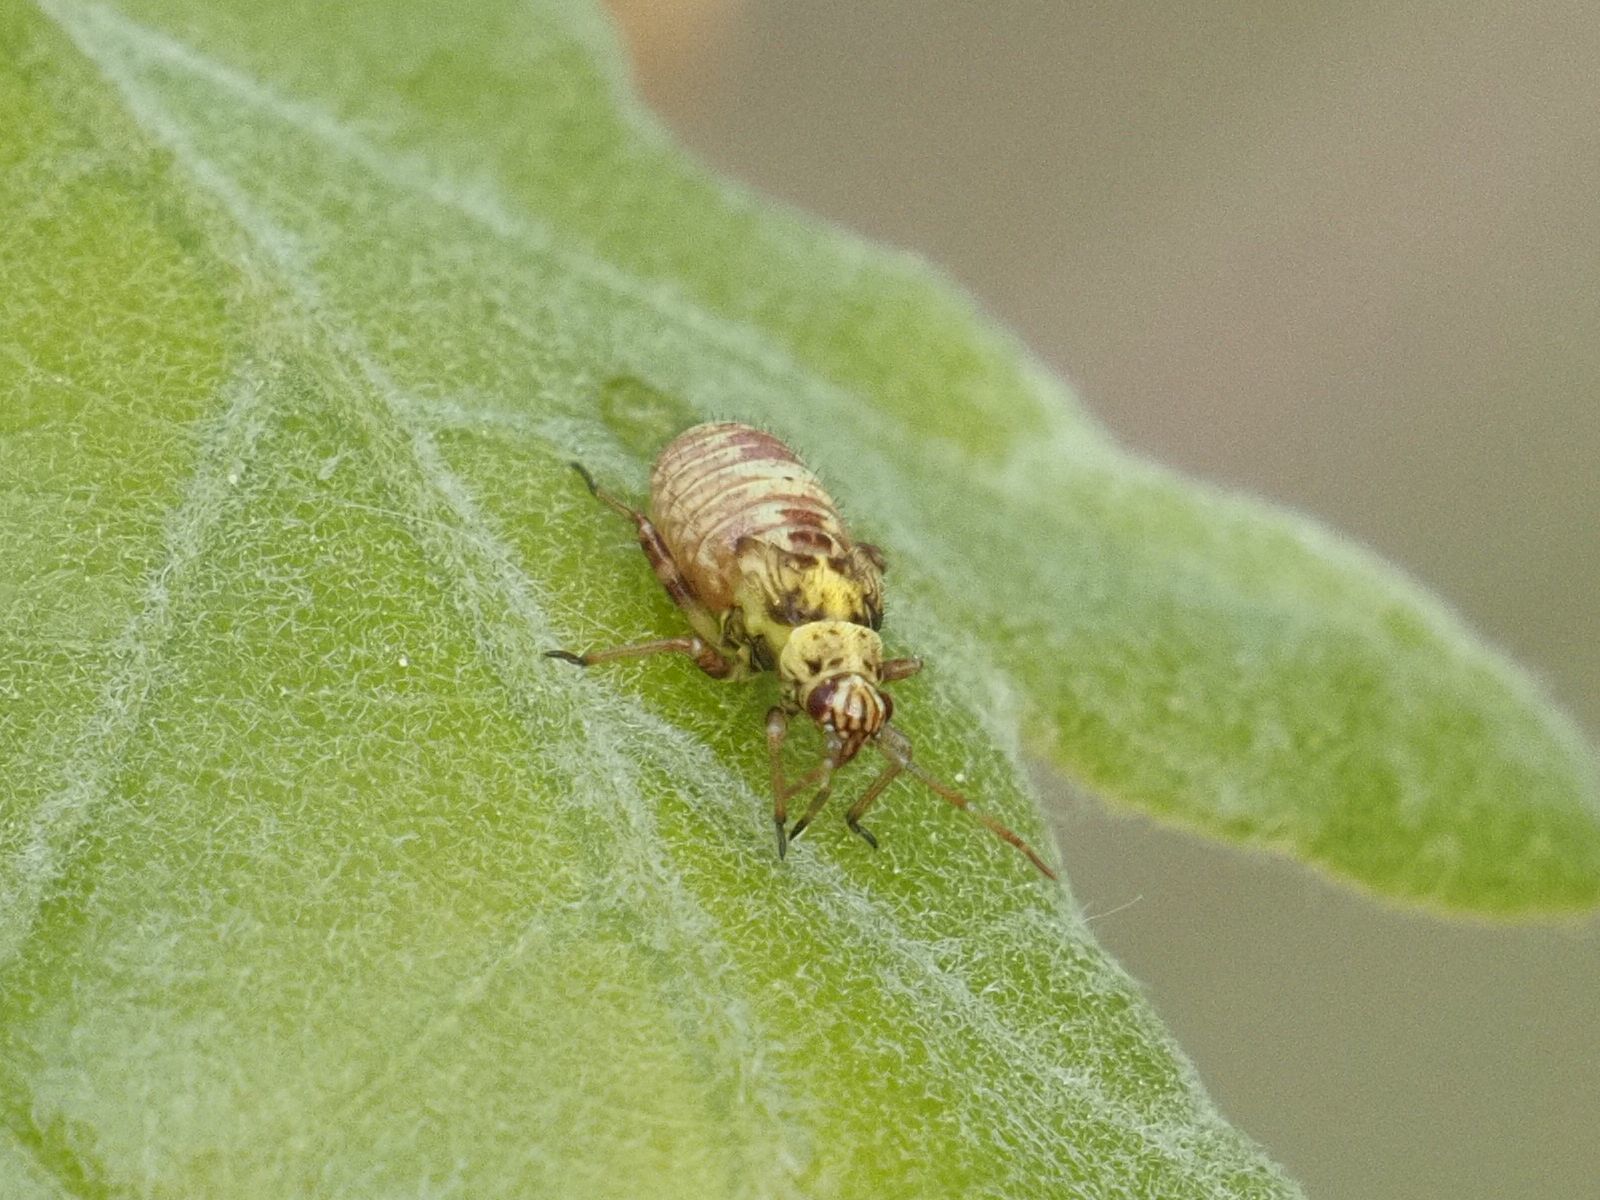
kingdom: Animalia
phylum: Arthropoda
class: Insecta
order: Hemiptera
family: Miridae
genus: Rhabdomiris
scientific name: Rhabdomiris striatellus
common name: Plant bug
